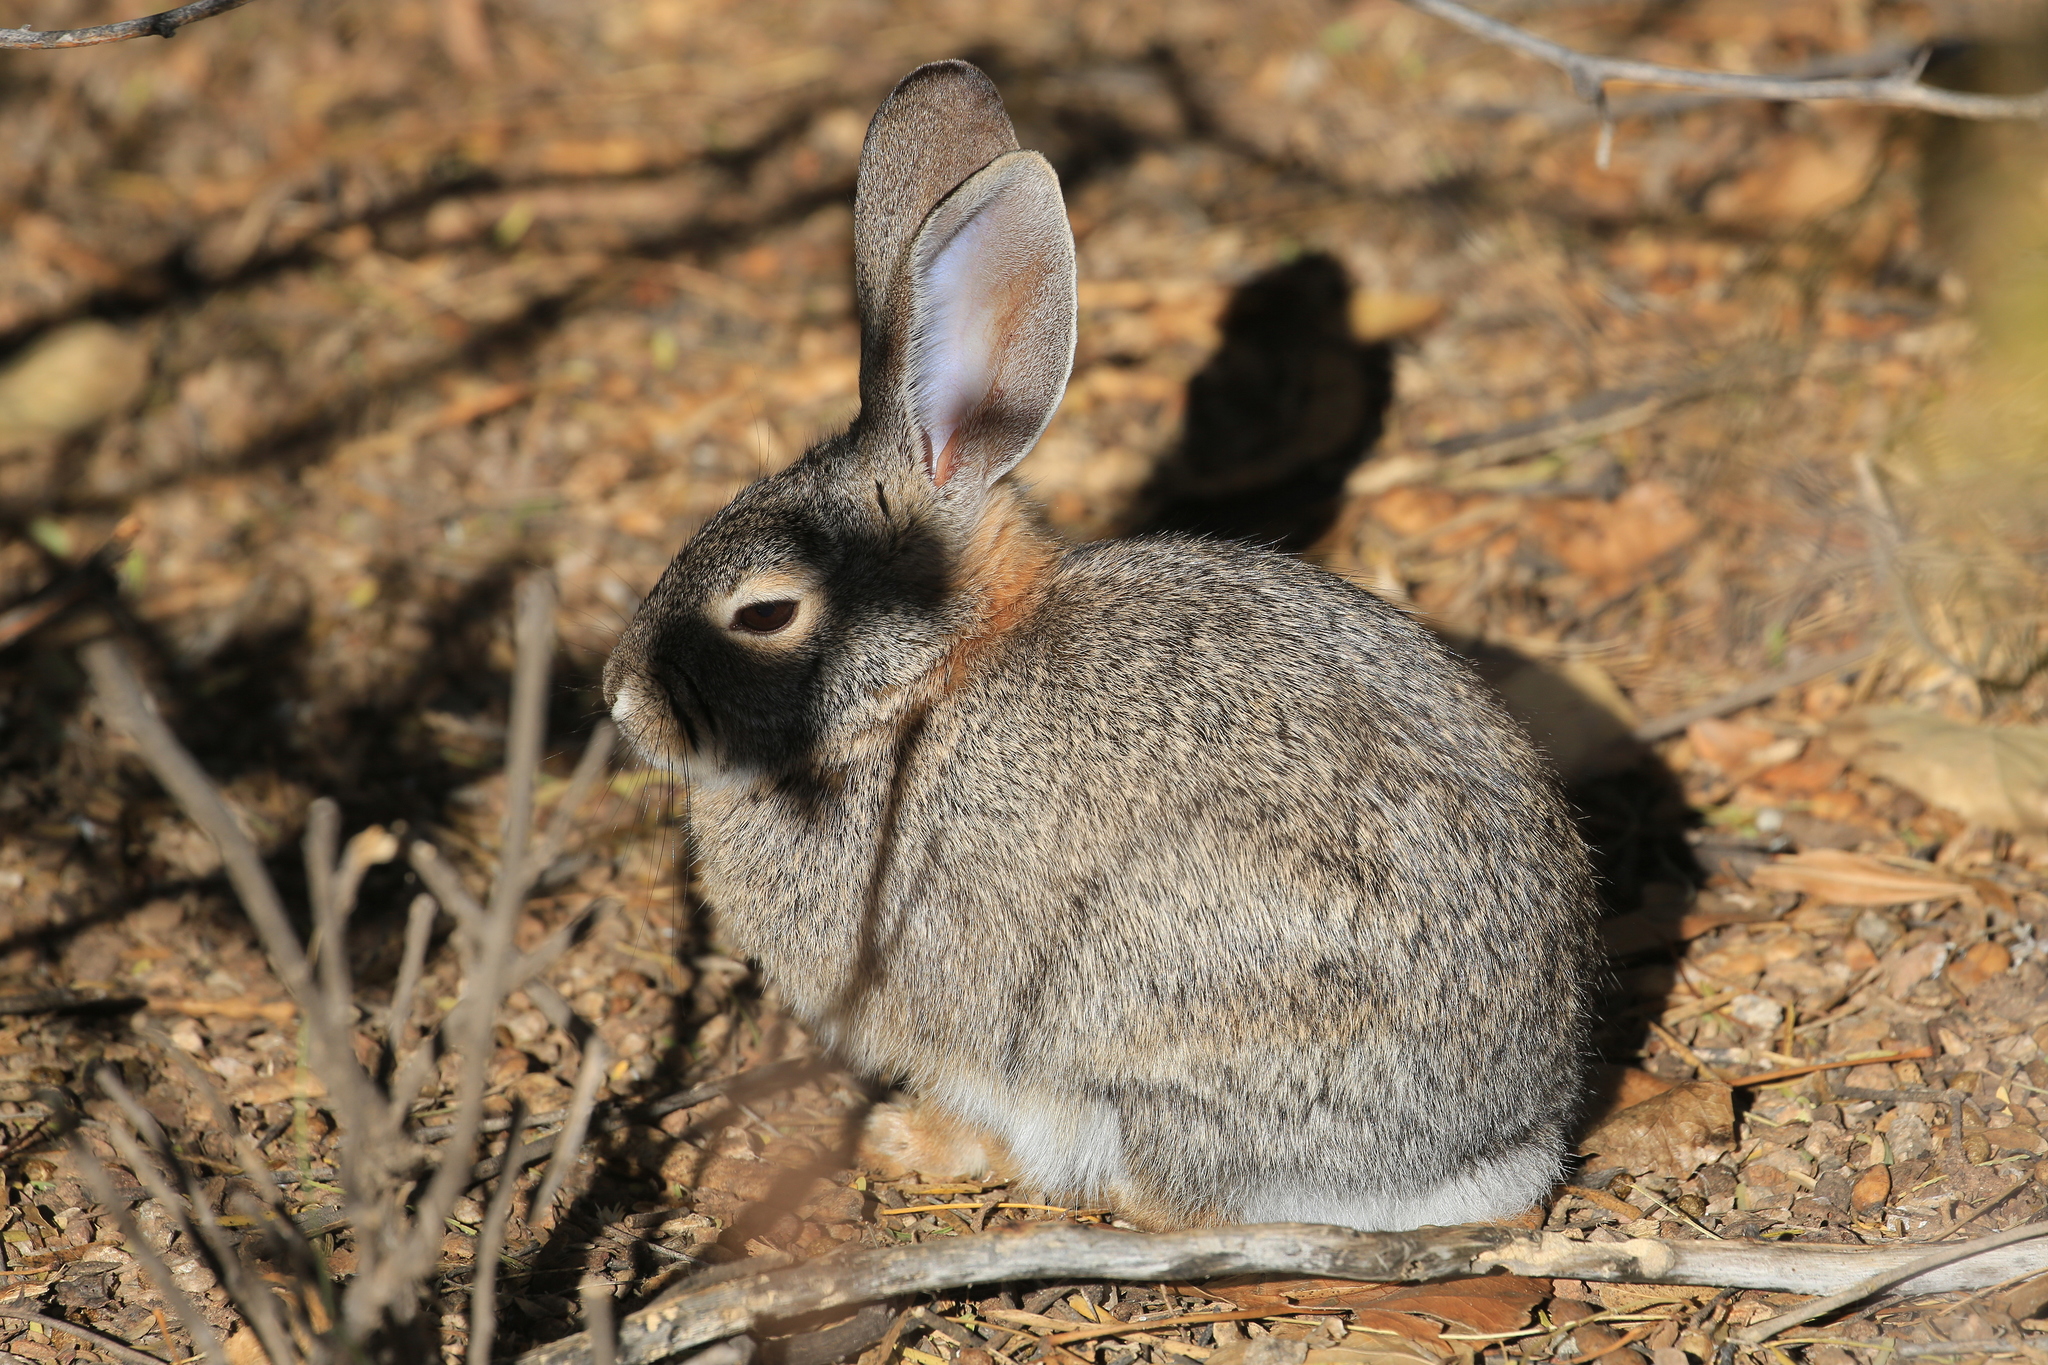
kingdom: Animalia
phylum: Chordata
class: Mammalia
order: Lagomorpha
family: Leporidae
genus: Sylvilagus
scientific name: Sylvilagus audubonii
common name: Desert cottontail
